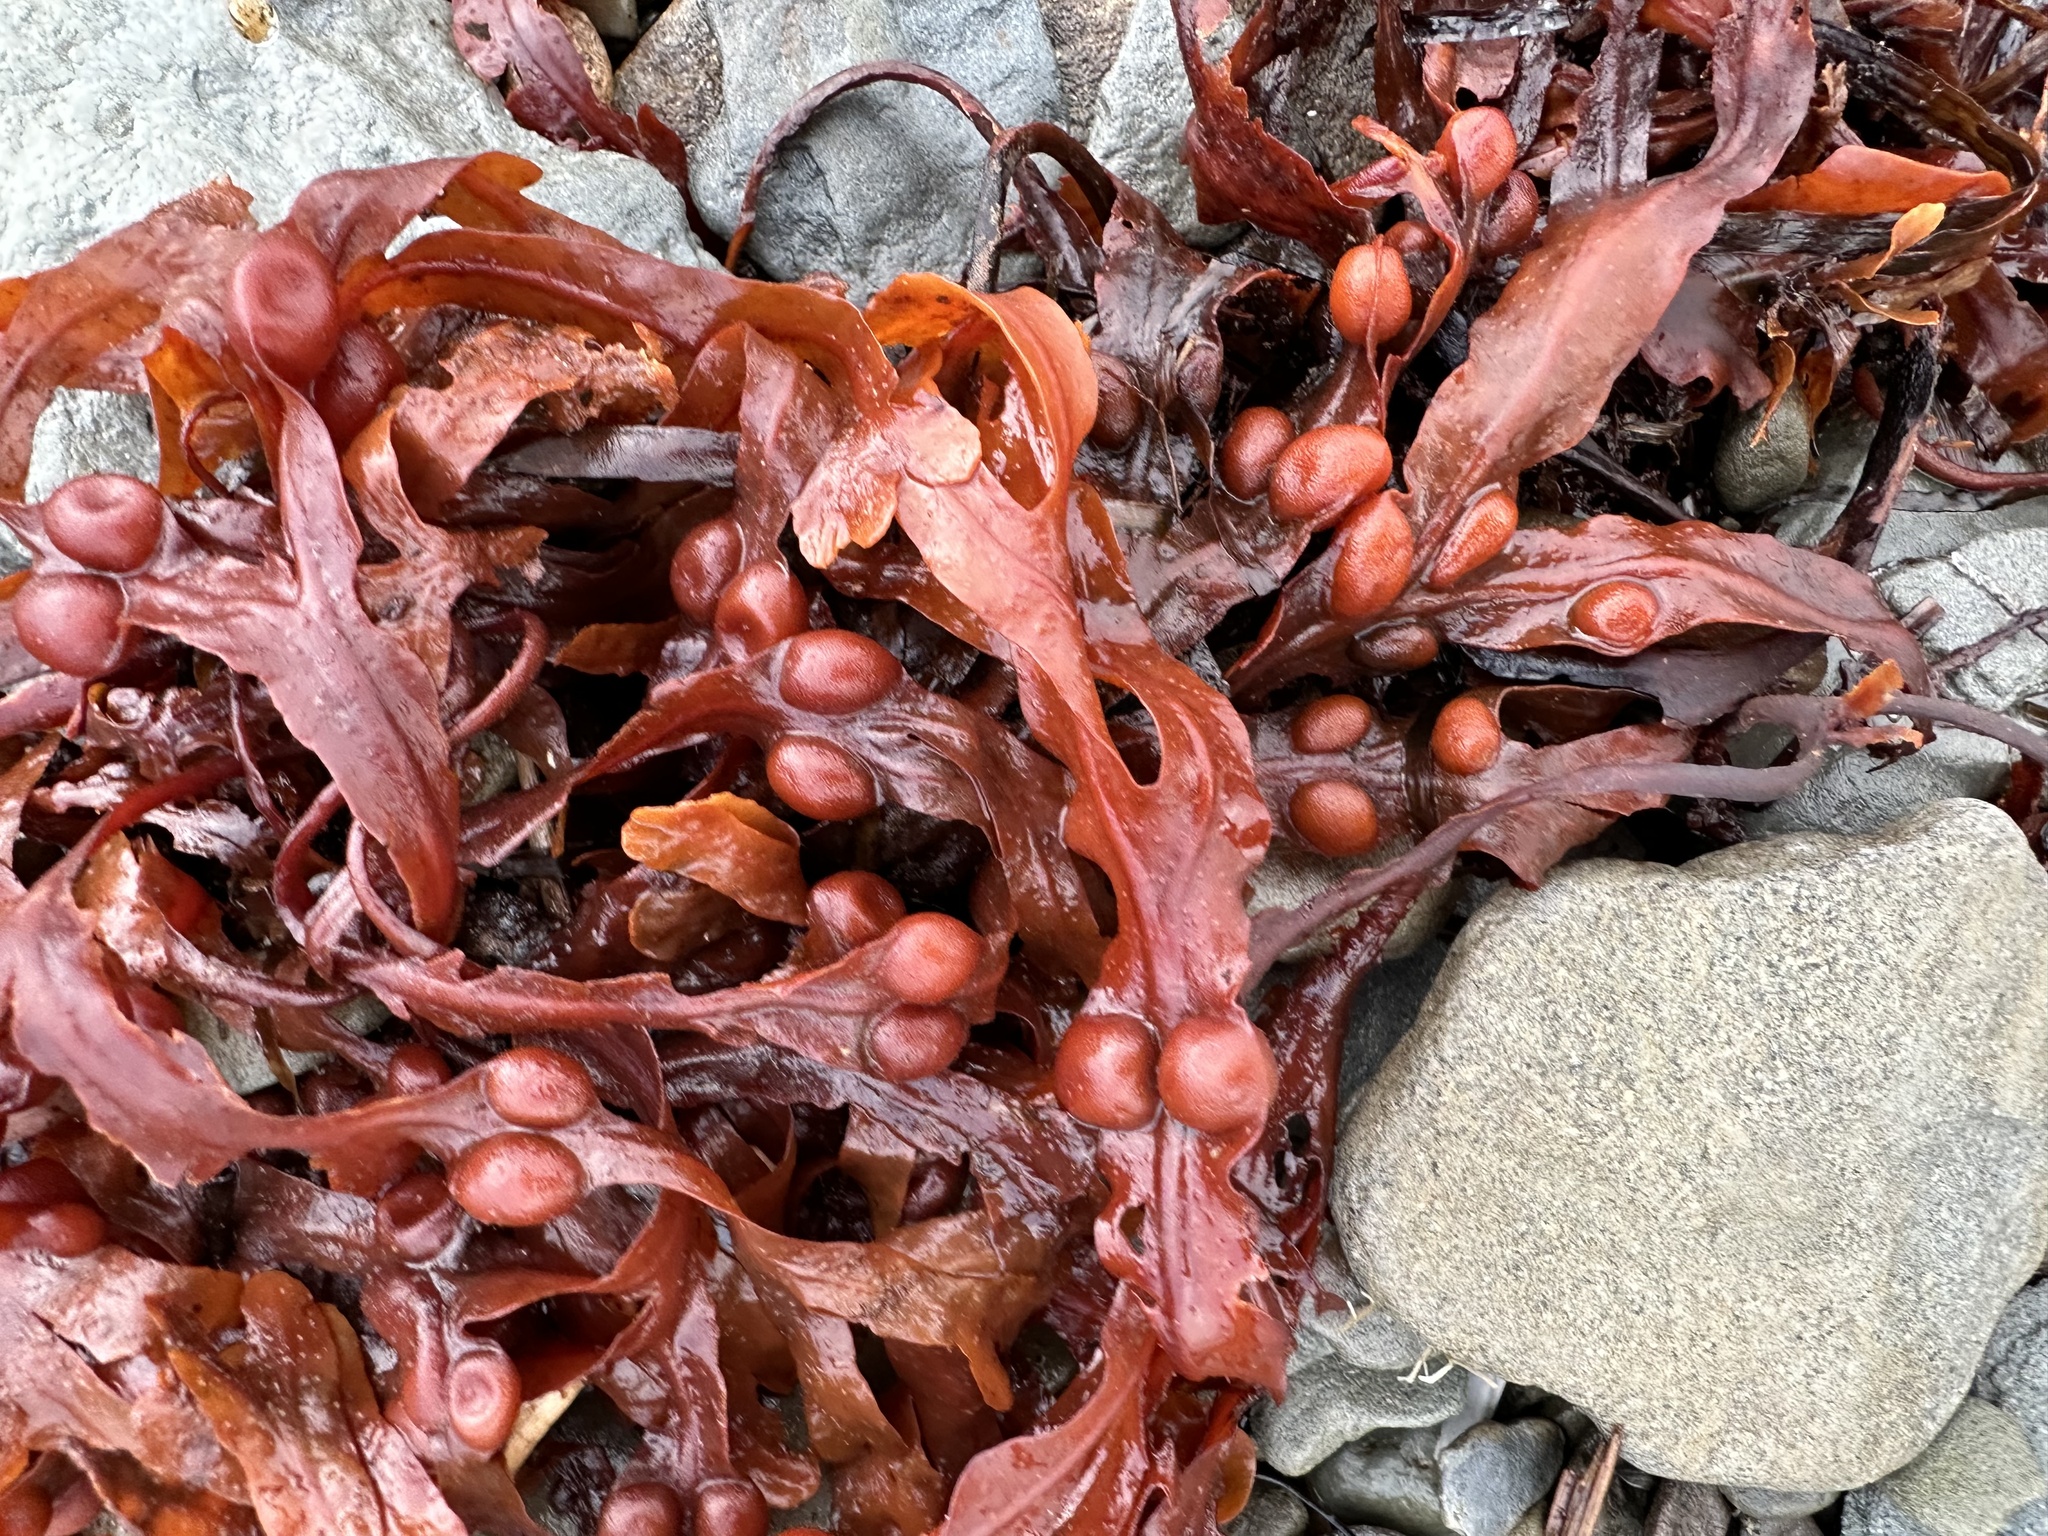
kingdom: Chromista
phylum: Ochrophyta
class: Phaeophyceae
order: Fucales
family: Fucaceae
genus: Fucus
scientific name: Fucus vesiculosus
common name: Bladder wrack
